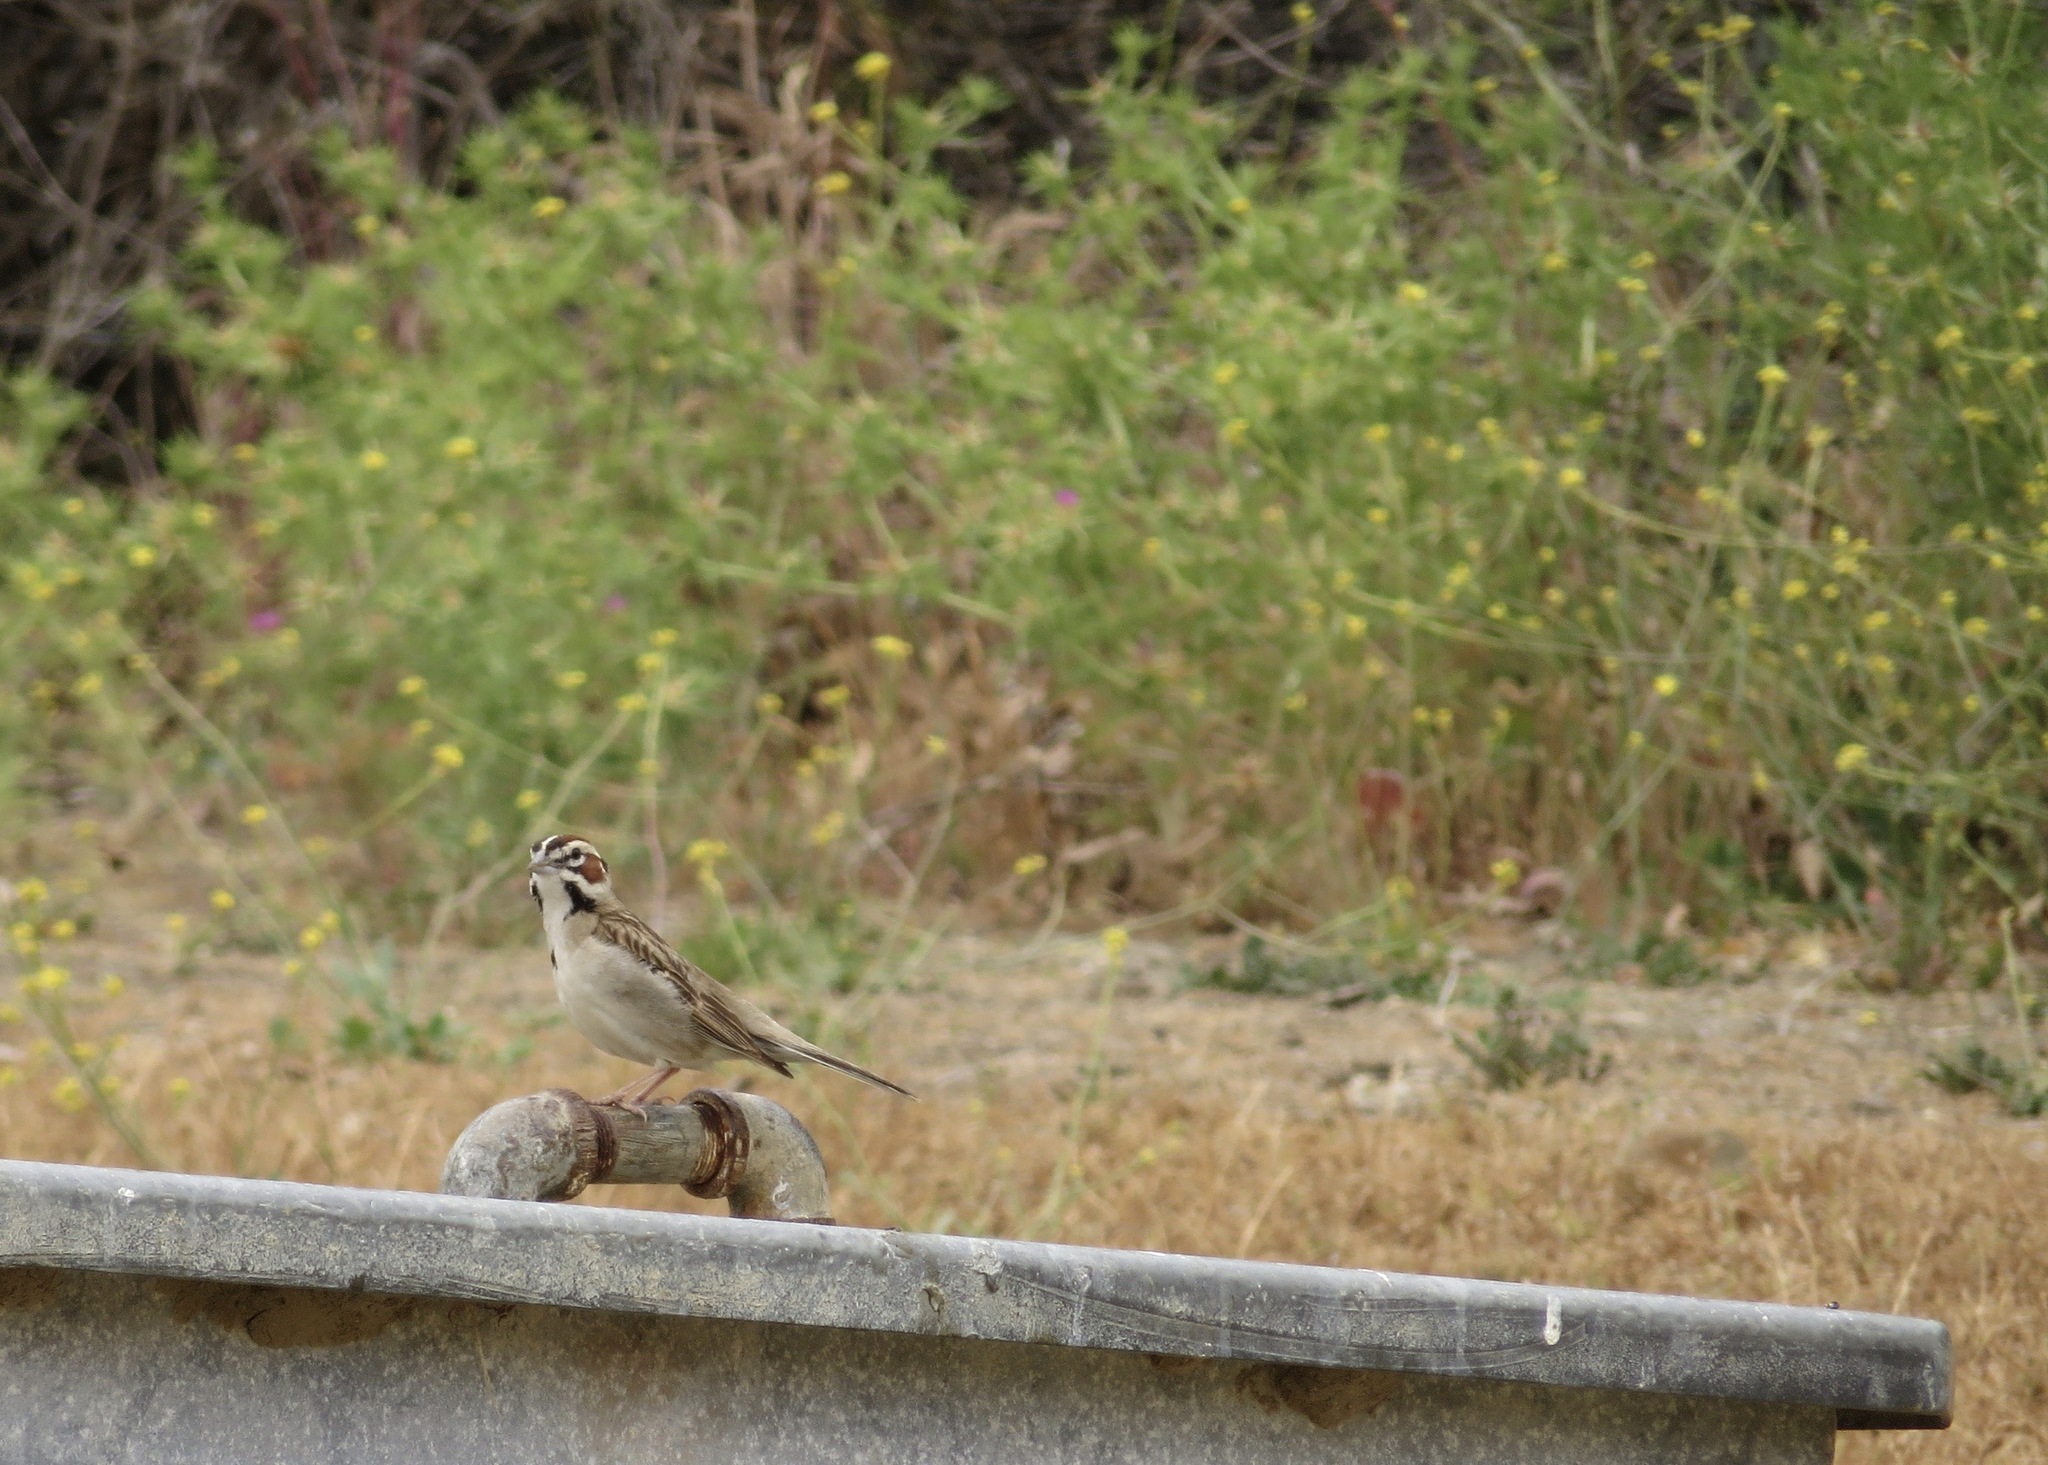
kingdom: Animalia
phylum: Chordata
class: Aves
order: Passeriformes
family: Passerellidae
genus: Chondestes
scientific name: Chondestes grammacus
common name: Lark sparrow
